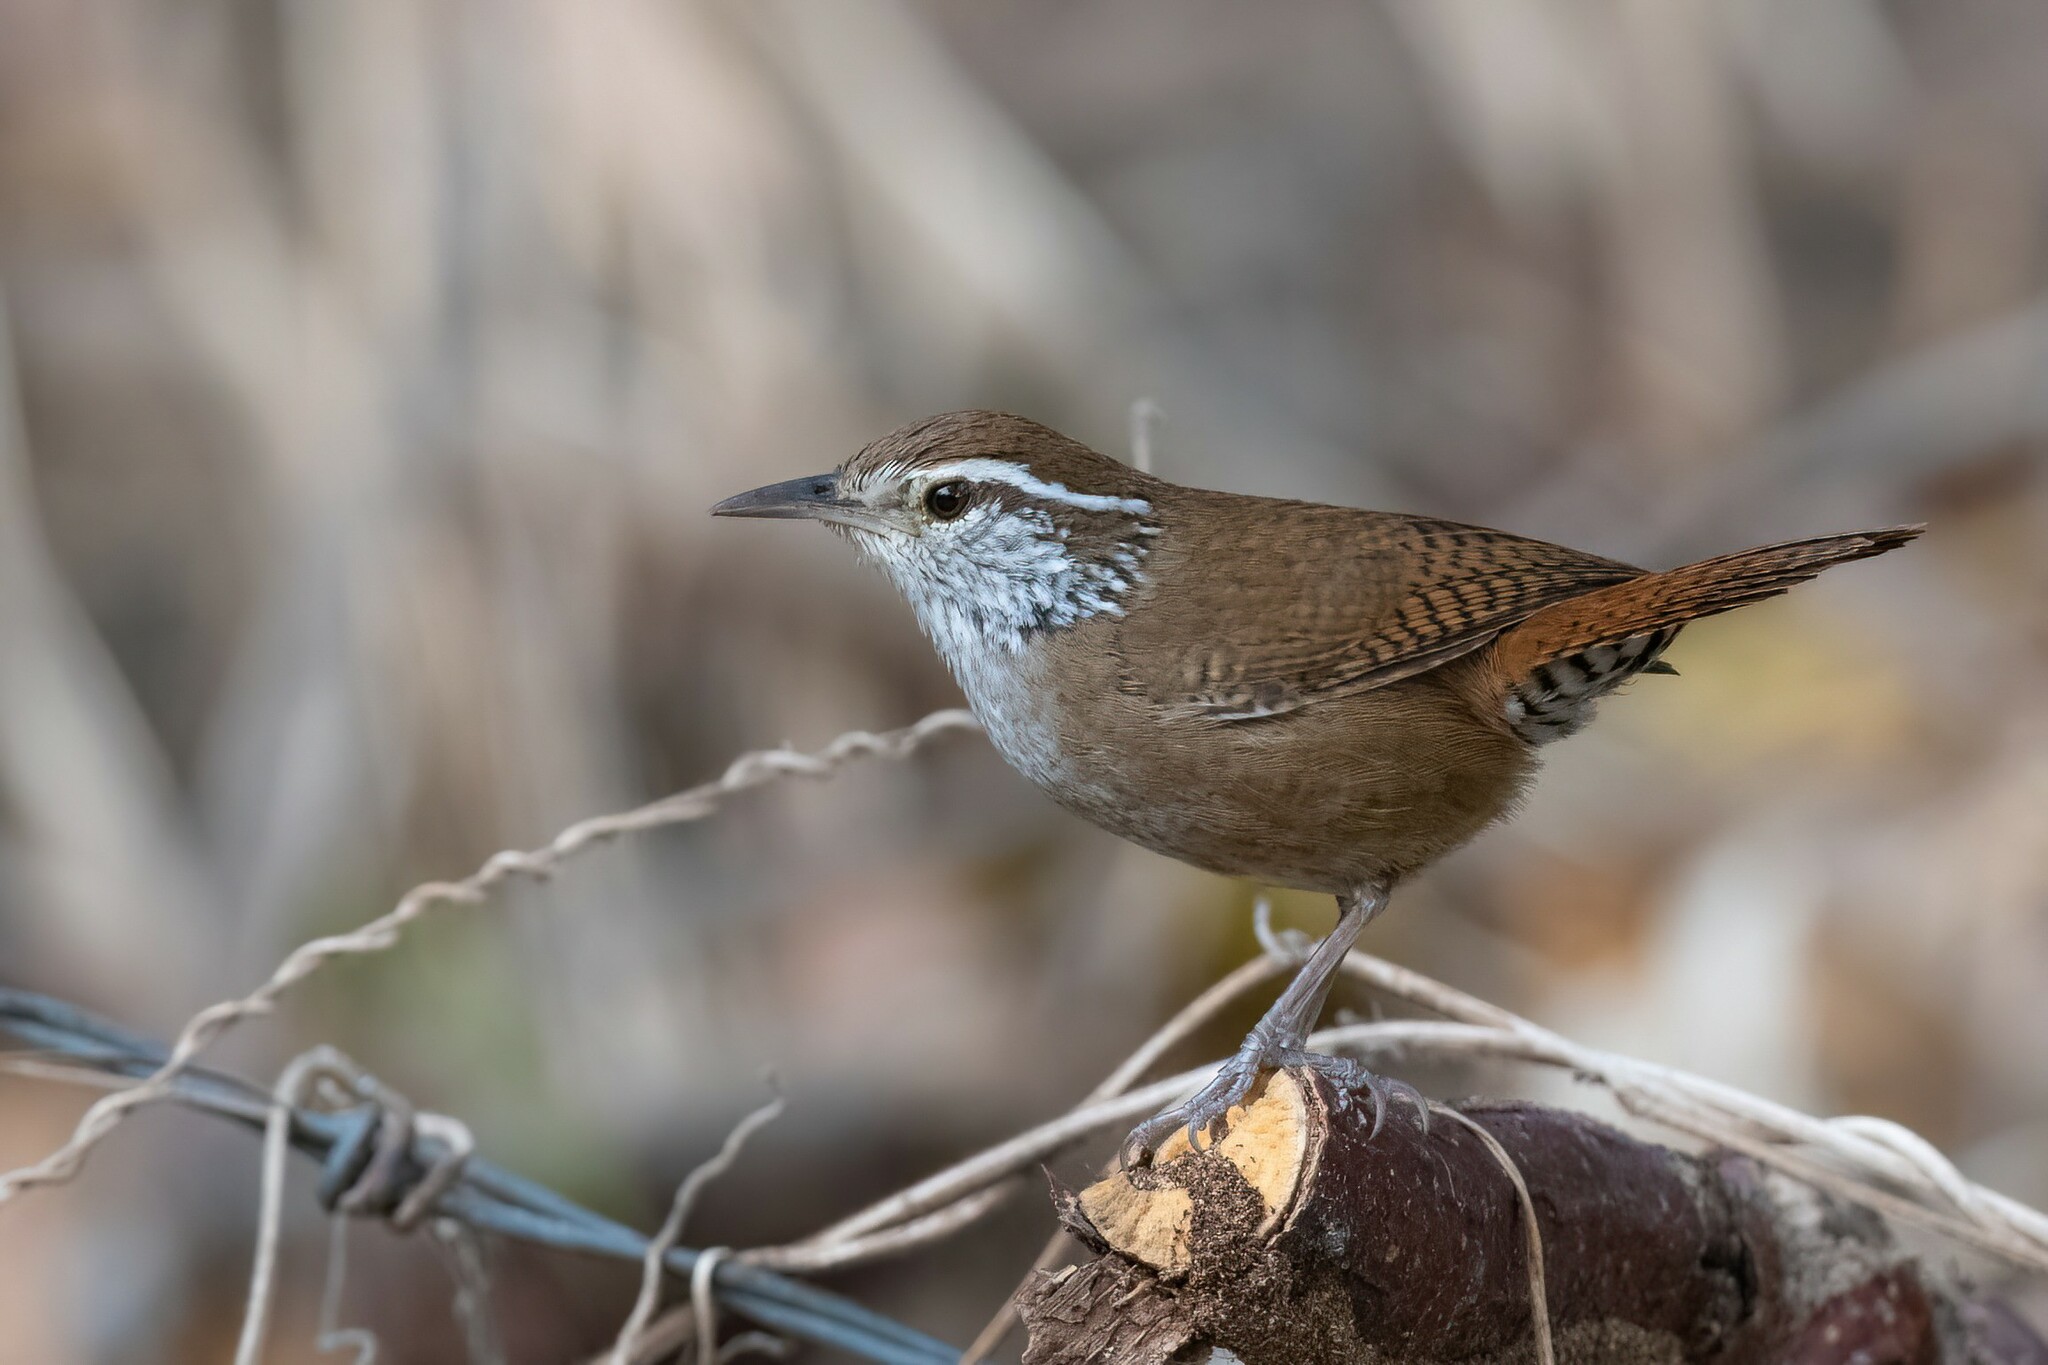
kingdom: Animalia
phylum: Chordata
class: Aves
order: Passeriformes
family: Troglodytidae
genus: Thryophilus
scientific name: Thryophilus sinaloa
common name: Sinaloa wren
